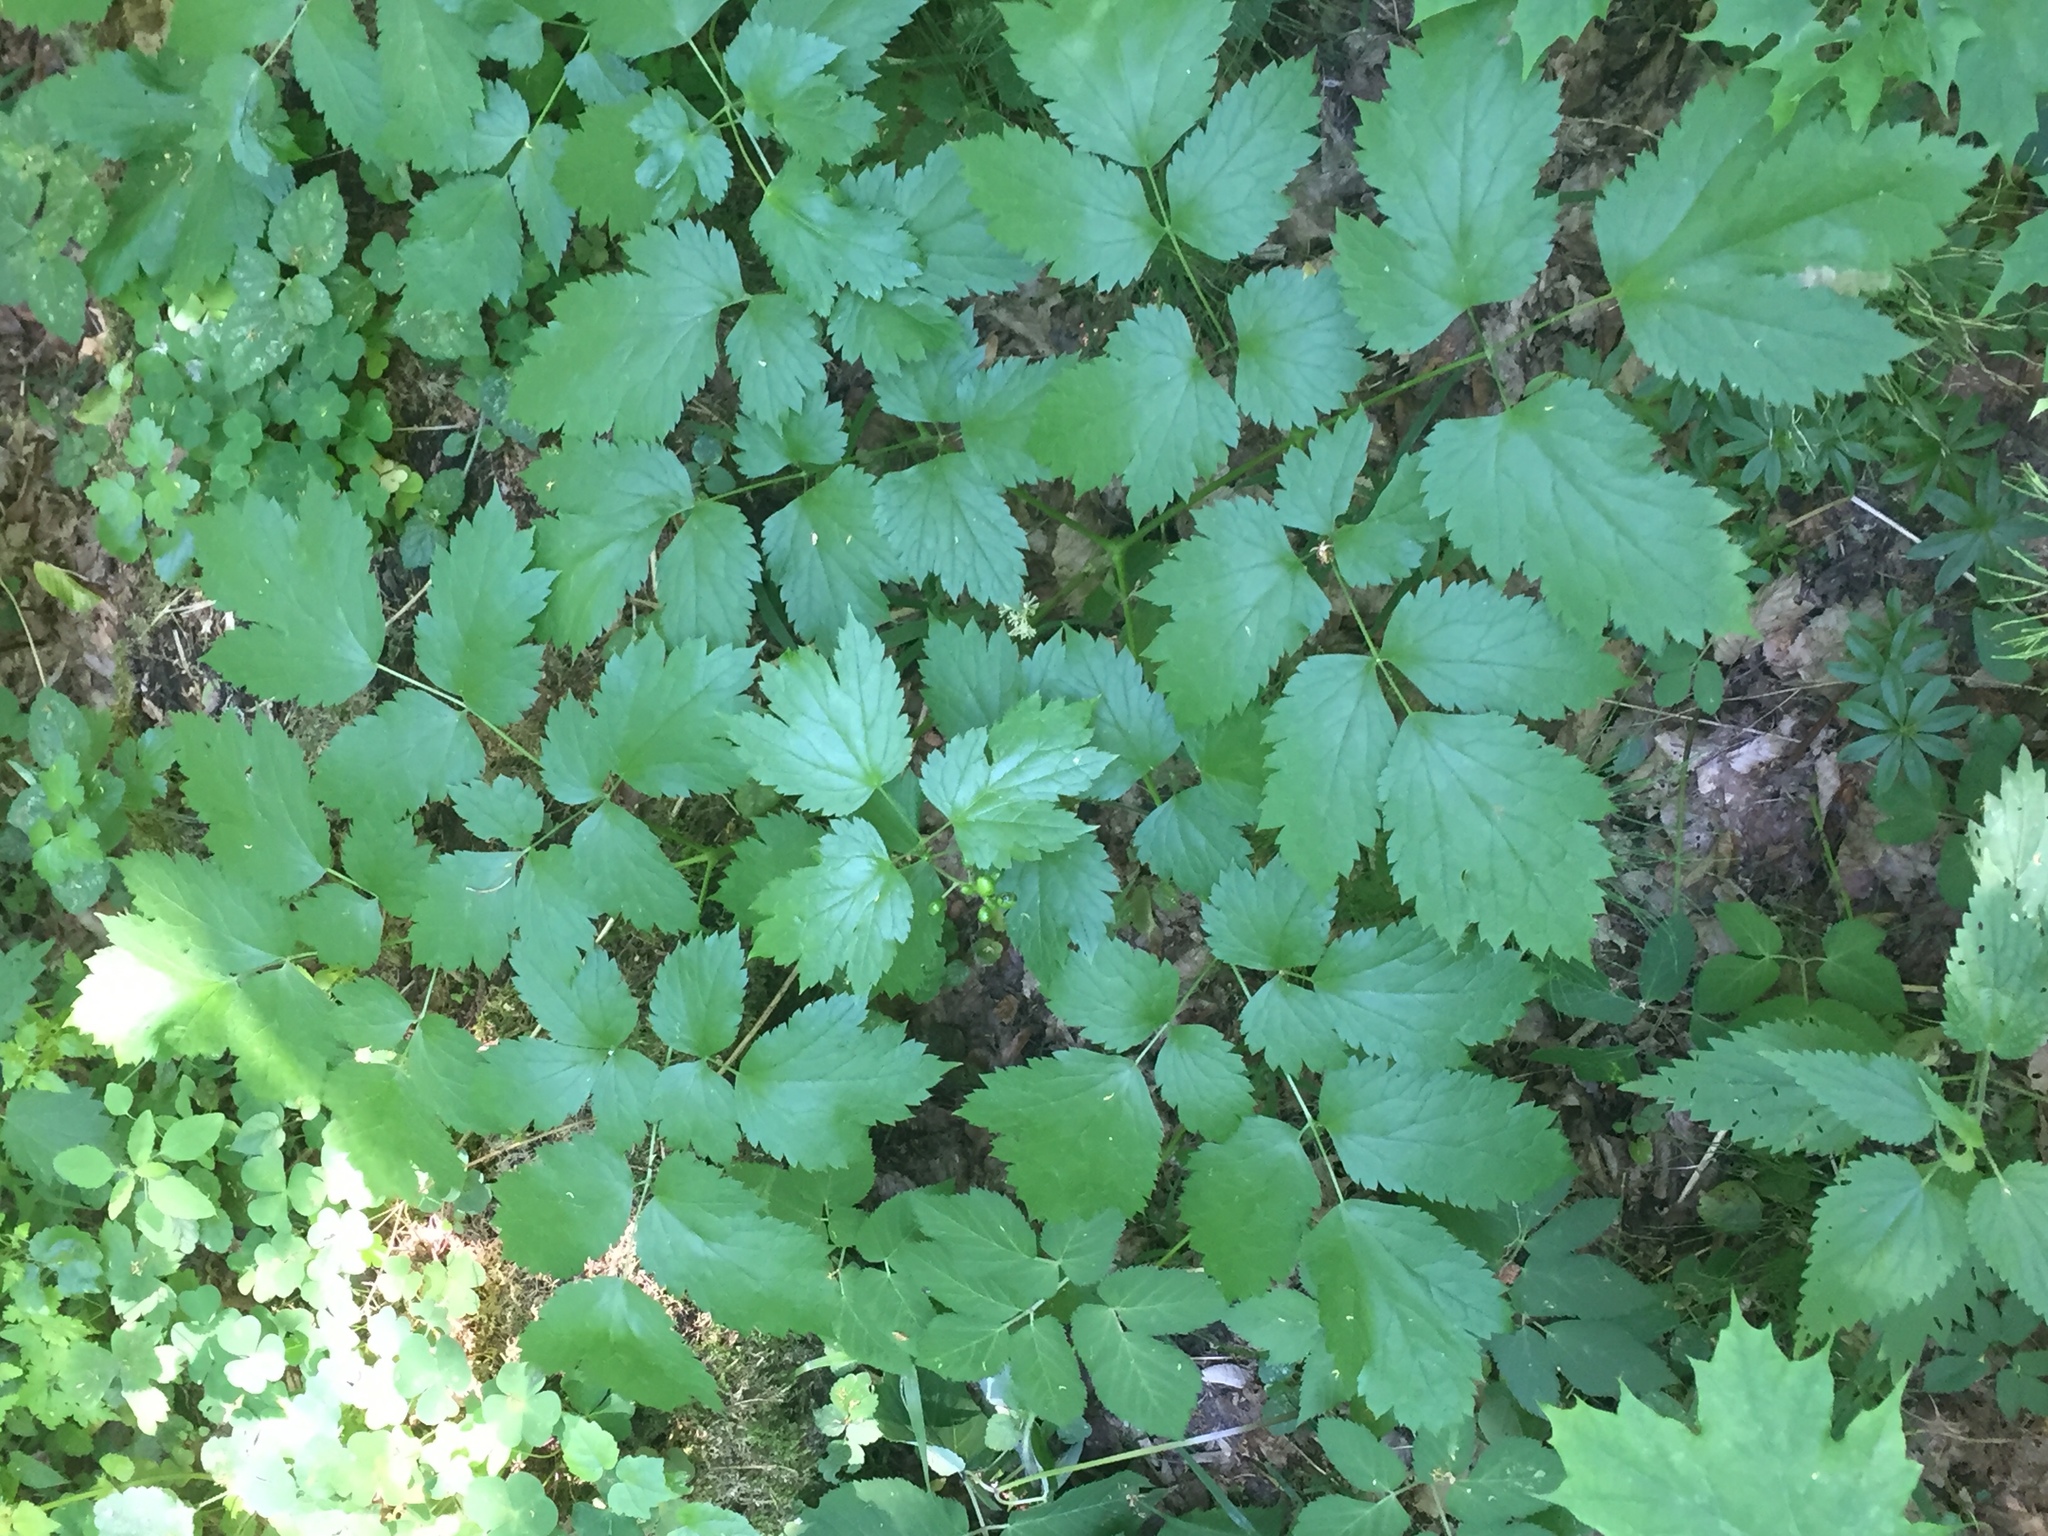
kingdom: Plantae
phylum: Tracheophyta
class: Magnoliopsida
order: Ranunculales
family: Ranunculaceae
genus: Actaea
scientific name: Actaea spicata
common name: Baneberry
